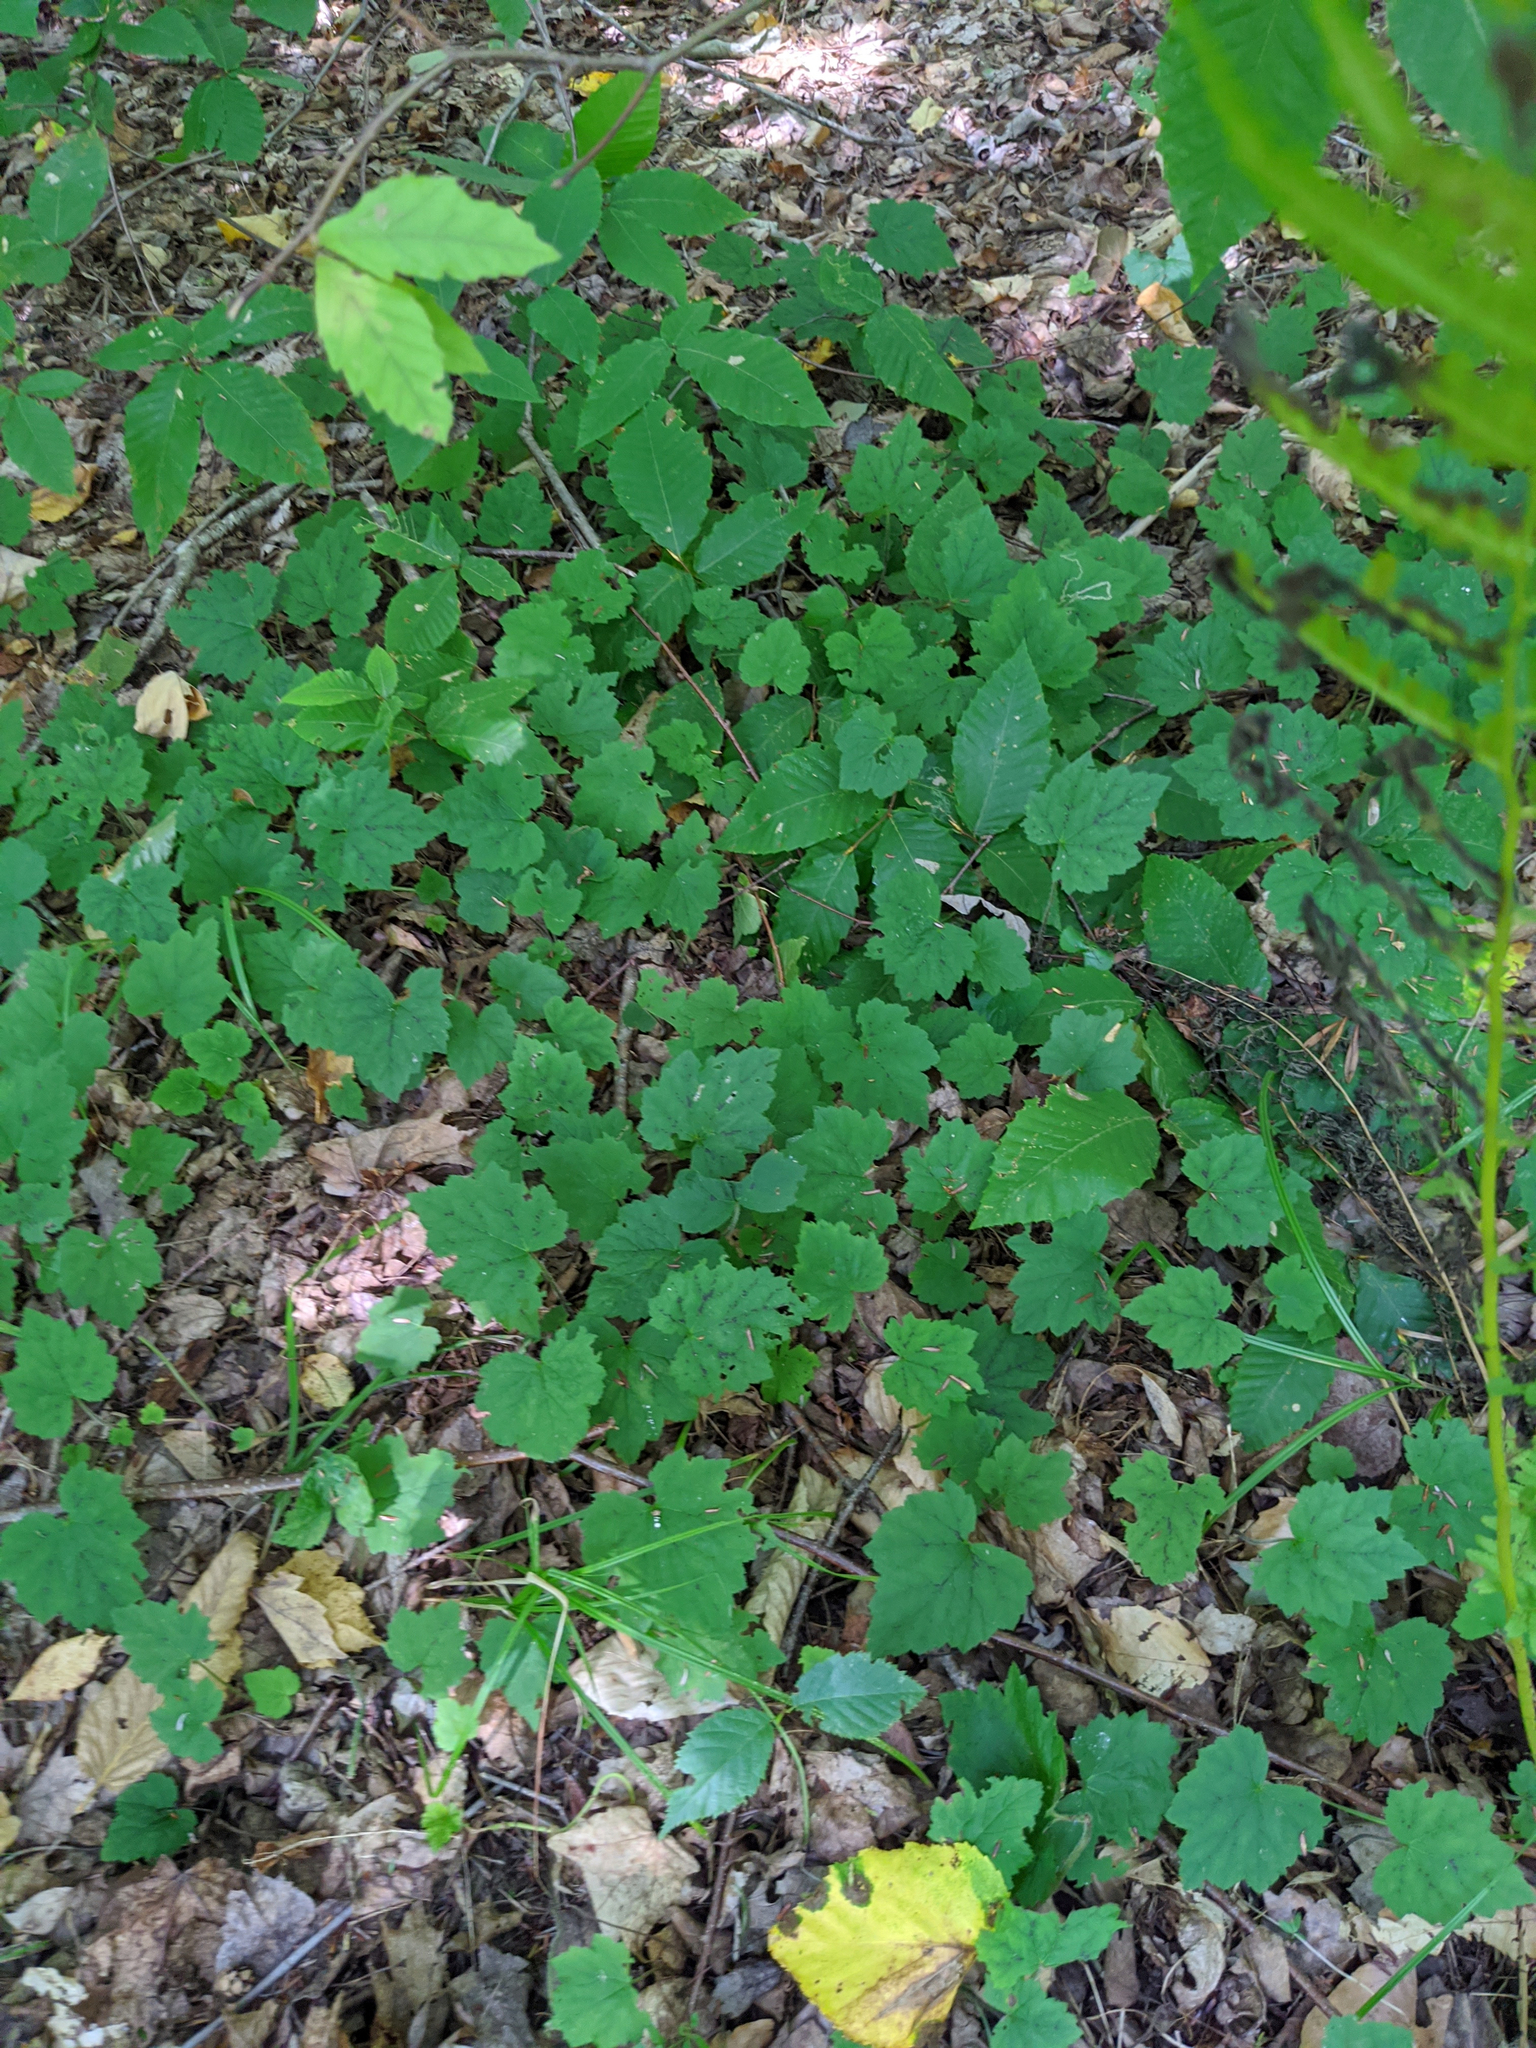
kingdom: Plantae
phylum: Tracheophyta
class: Magnoliopsida
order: Saxifragales
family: Saxifragaceae
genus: Tiarella
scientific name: Tiarella stolonifera
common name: Stoloniferous foamflower
